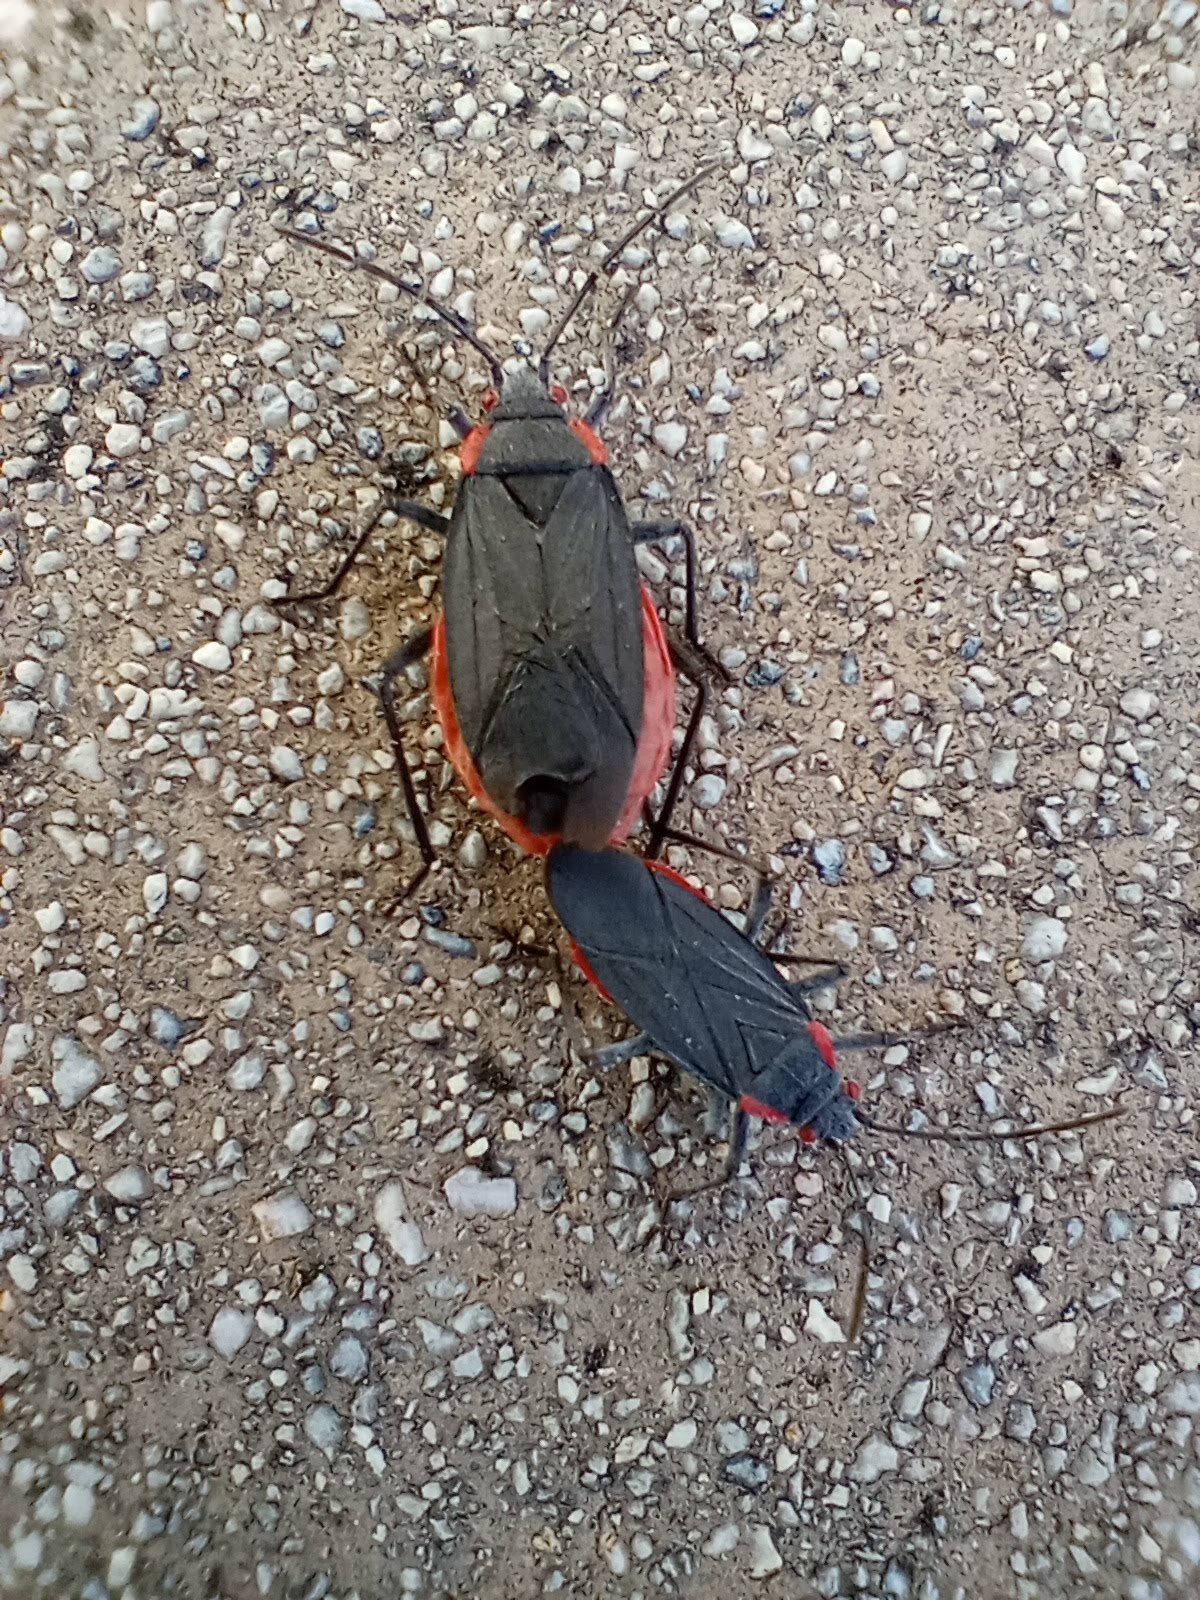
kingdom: Animalia
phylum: Arthropoda
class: Insecta
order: Hemiptera
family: Rhopalidae
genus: Jadera
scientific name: Jadera haematoloma
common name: Red-shouldered bug
